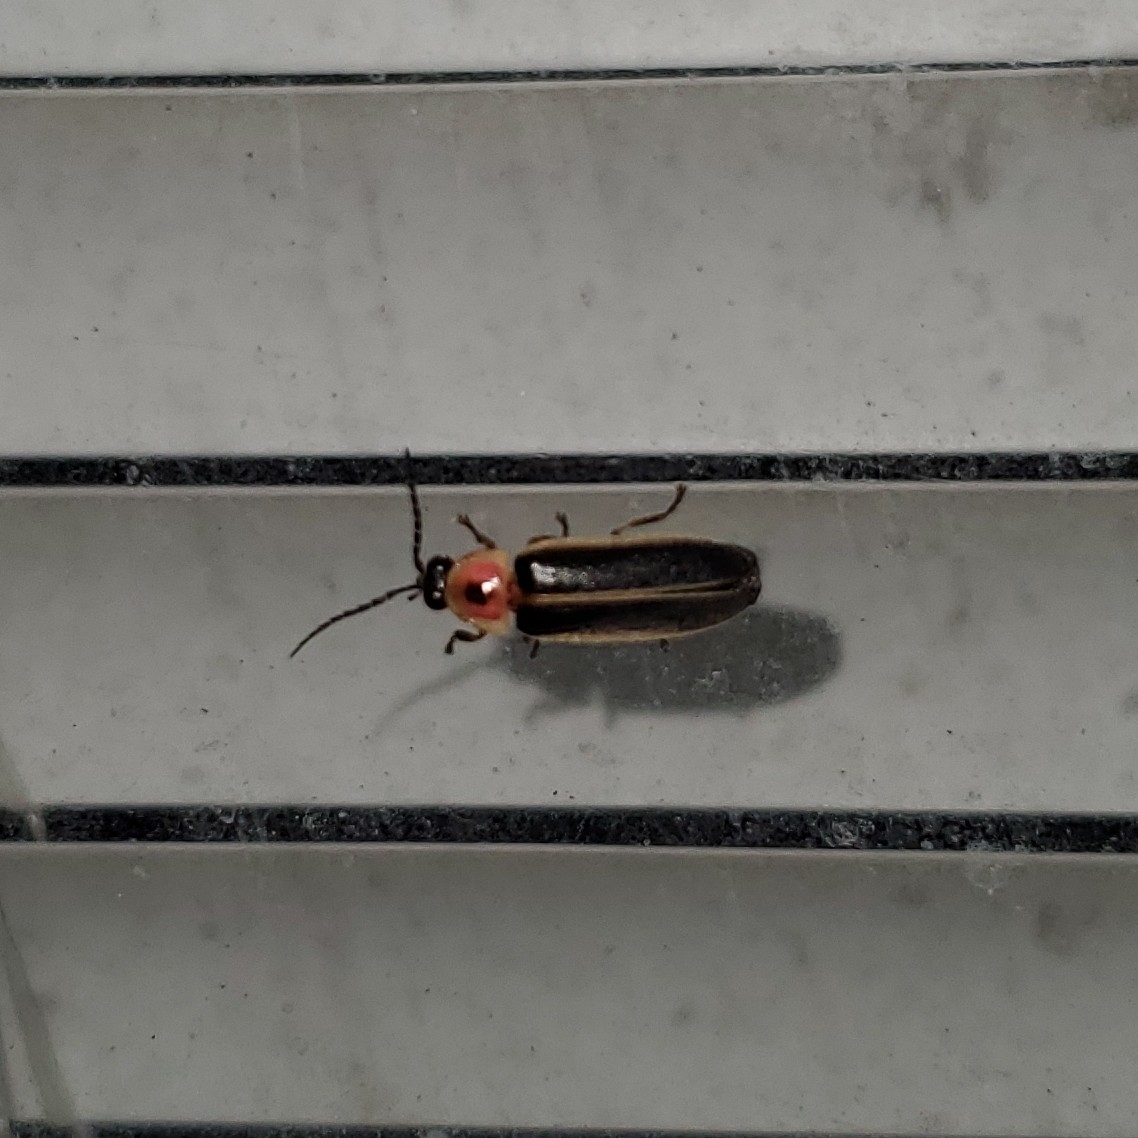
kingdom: Animalia
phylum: Arthropoda
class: Insecta
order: Coleoptera
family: Lampyridae
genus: Photinus
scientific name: Photinus pyralis
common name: Big dipper firefly
